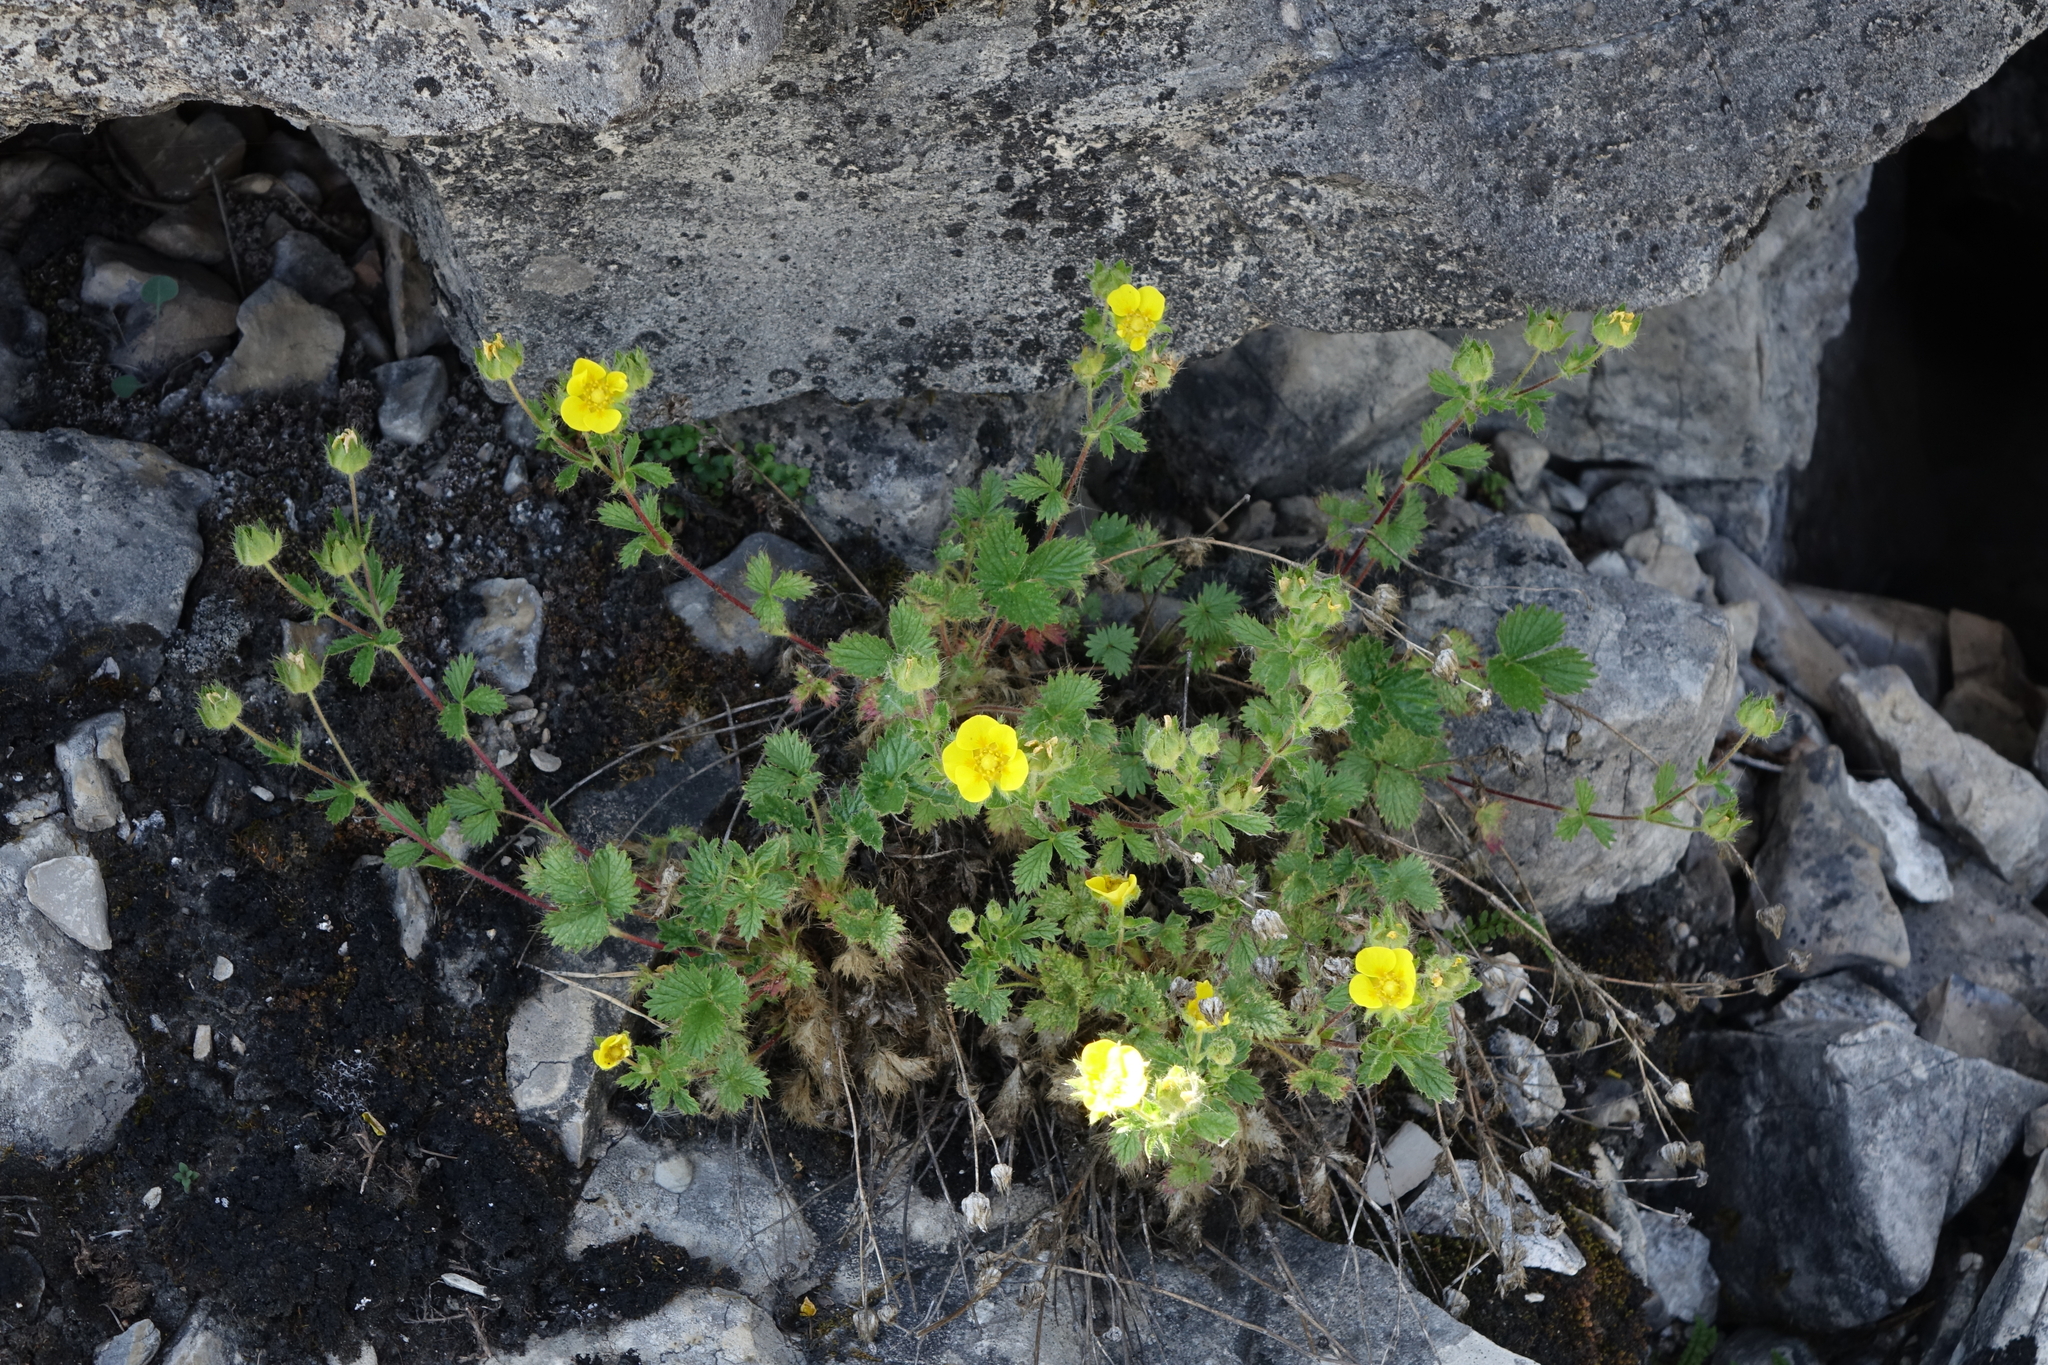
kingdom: Plantae
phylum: Tracheophyta
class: Magnoliopsida
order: Rosales
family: Rosaceae
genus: Potentilla
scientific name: Potentilla asperrima
